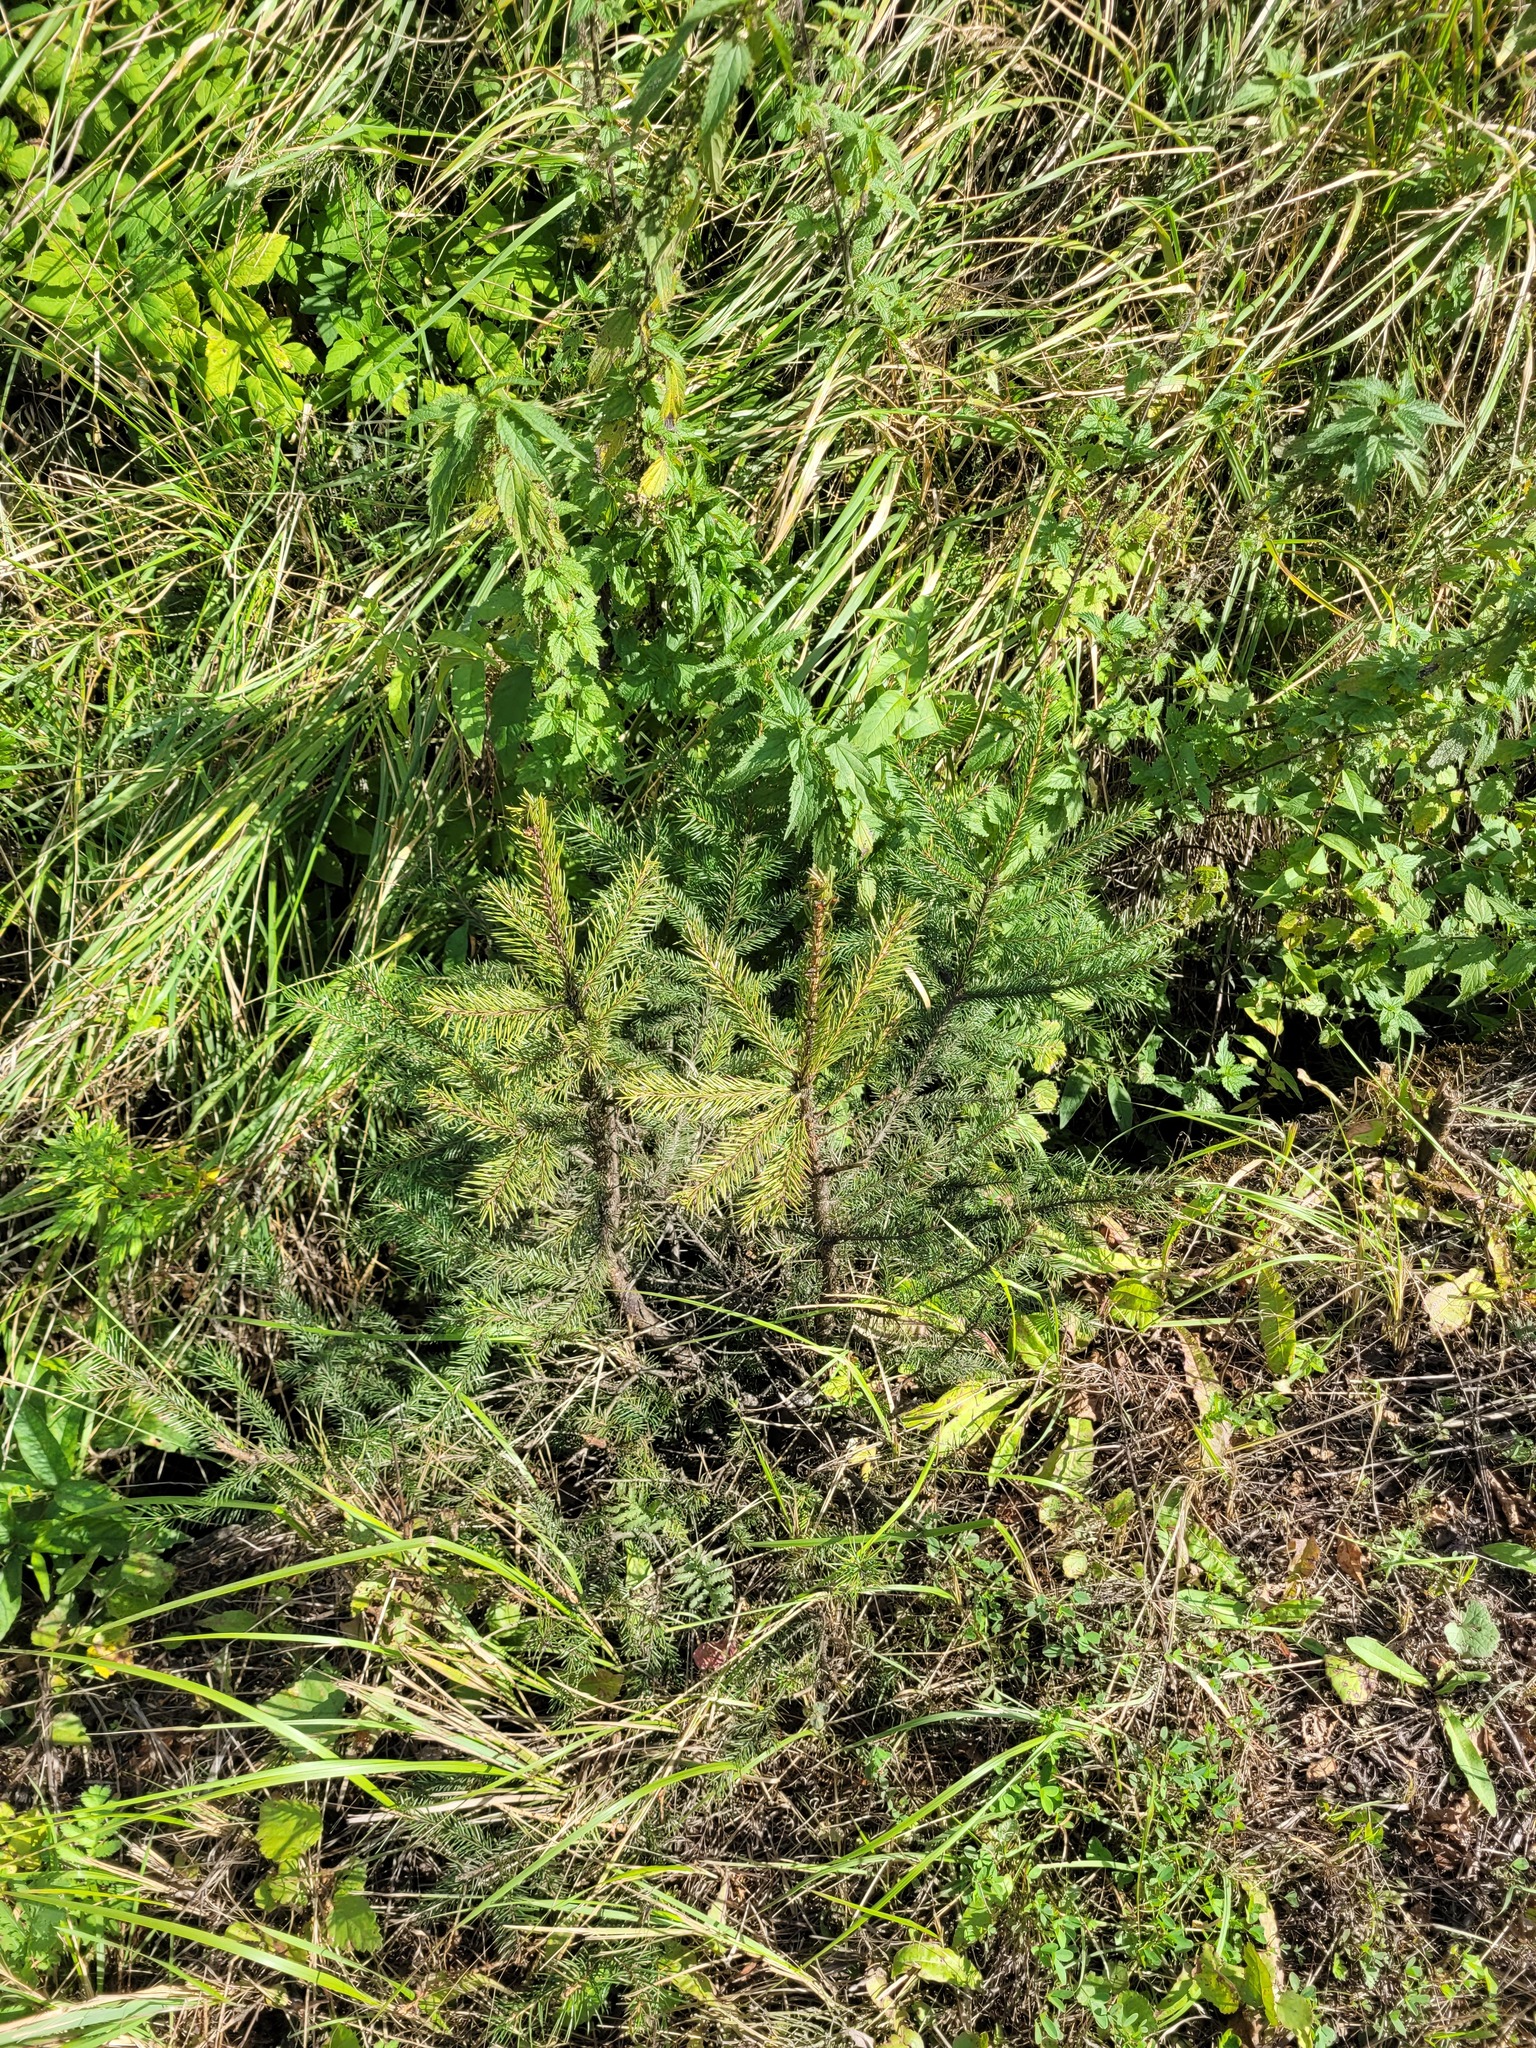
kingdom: Plantae
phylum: Tracheophyta
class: Pinopsida
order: Pinales
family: Pinaceae
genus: Picea
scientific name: Picea abies
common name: Norway spruce
